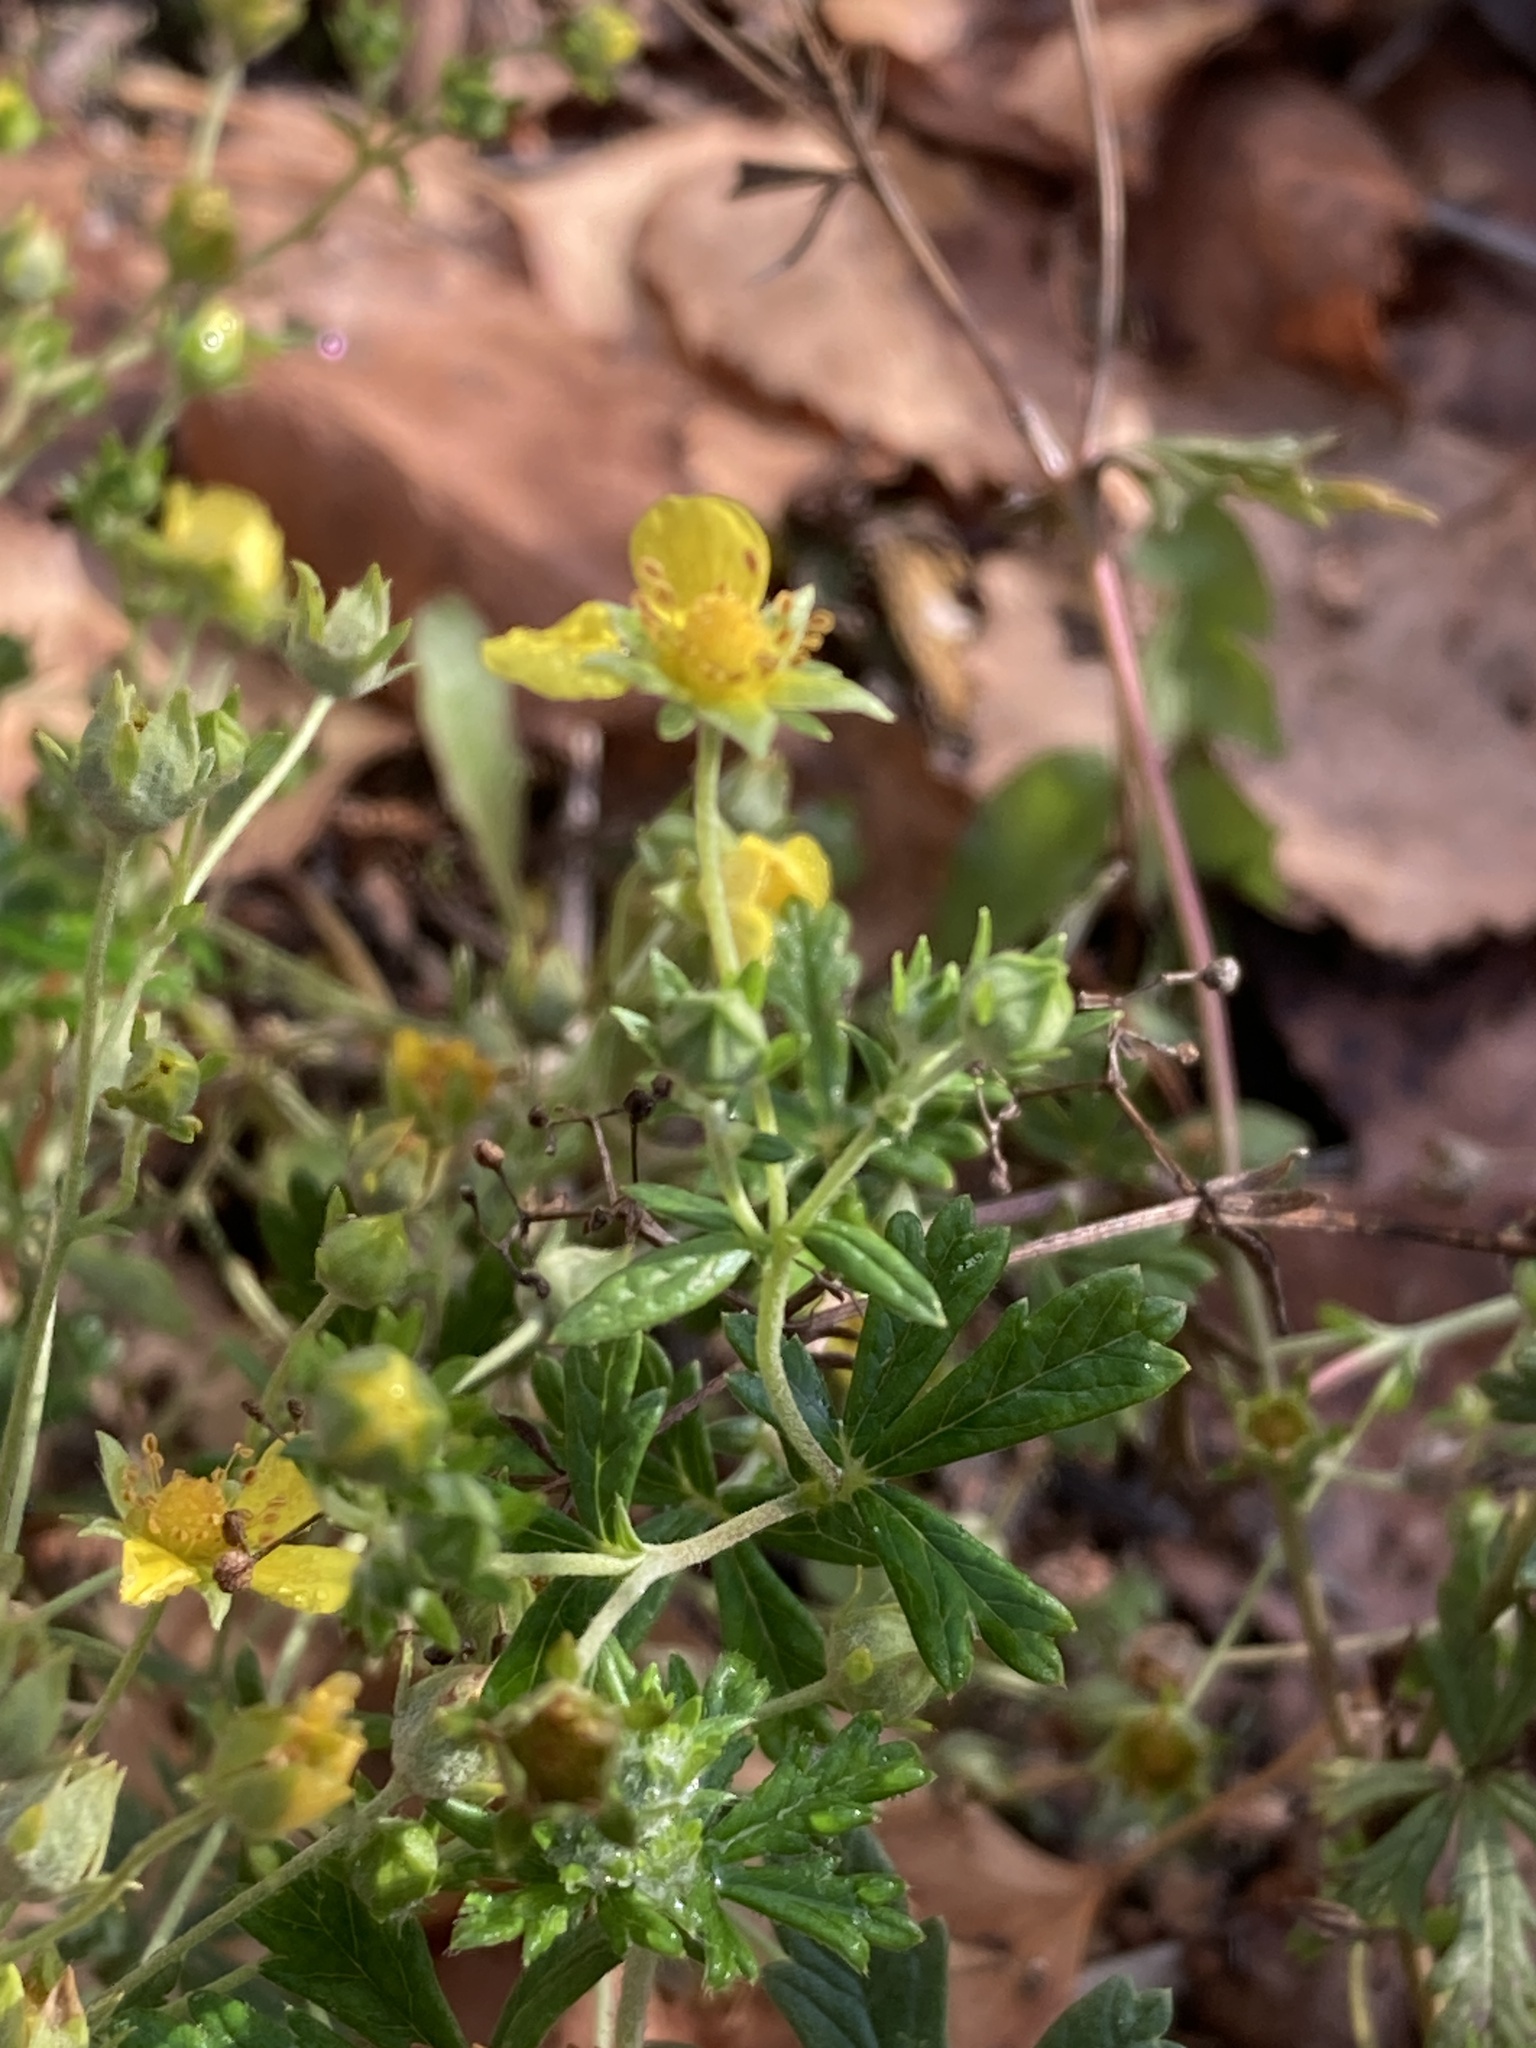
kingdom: Plantae
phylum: Tracheophyta
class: Magnoliopsida
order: Rosales
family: Rosaceae
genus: Potentilla
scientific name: Potentilla argentea
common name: Hoary cinquefoil
